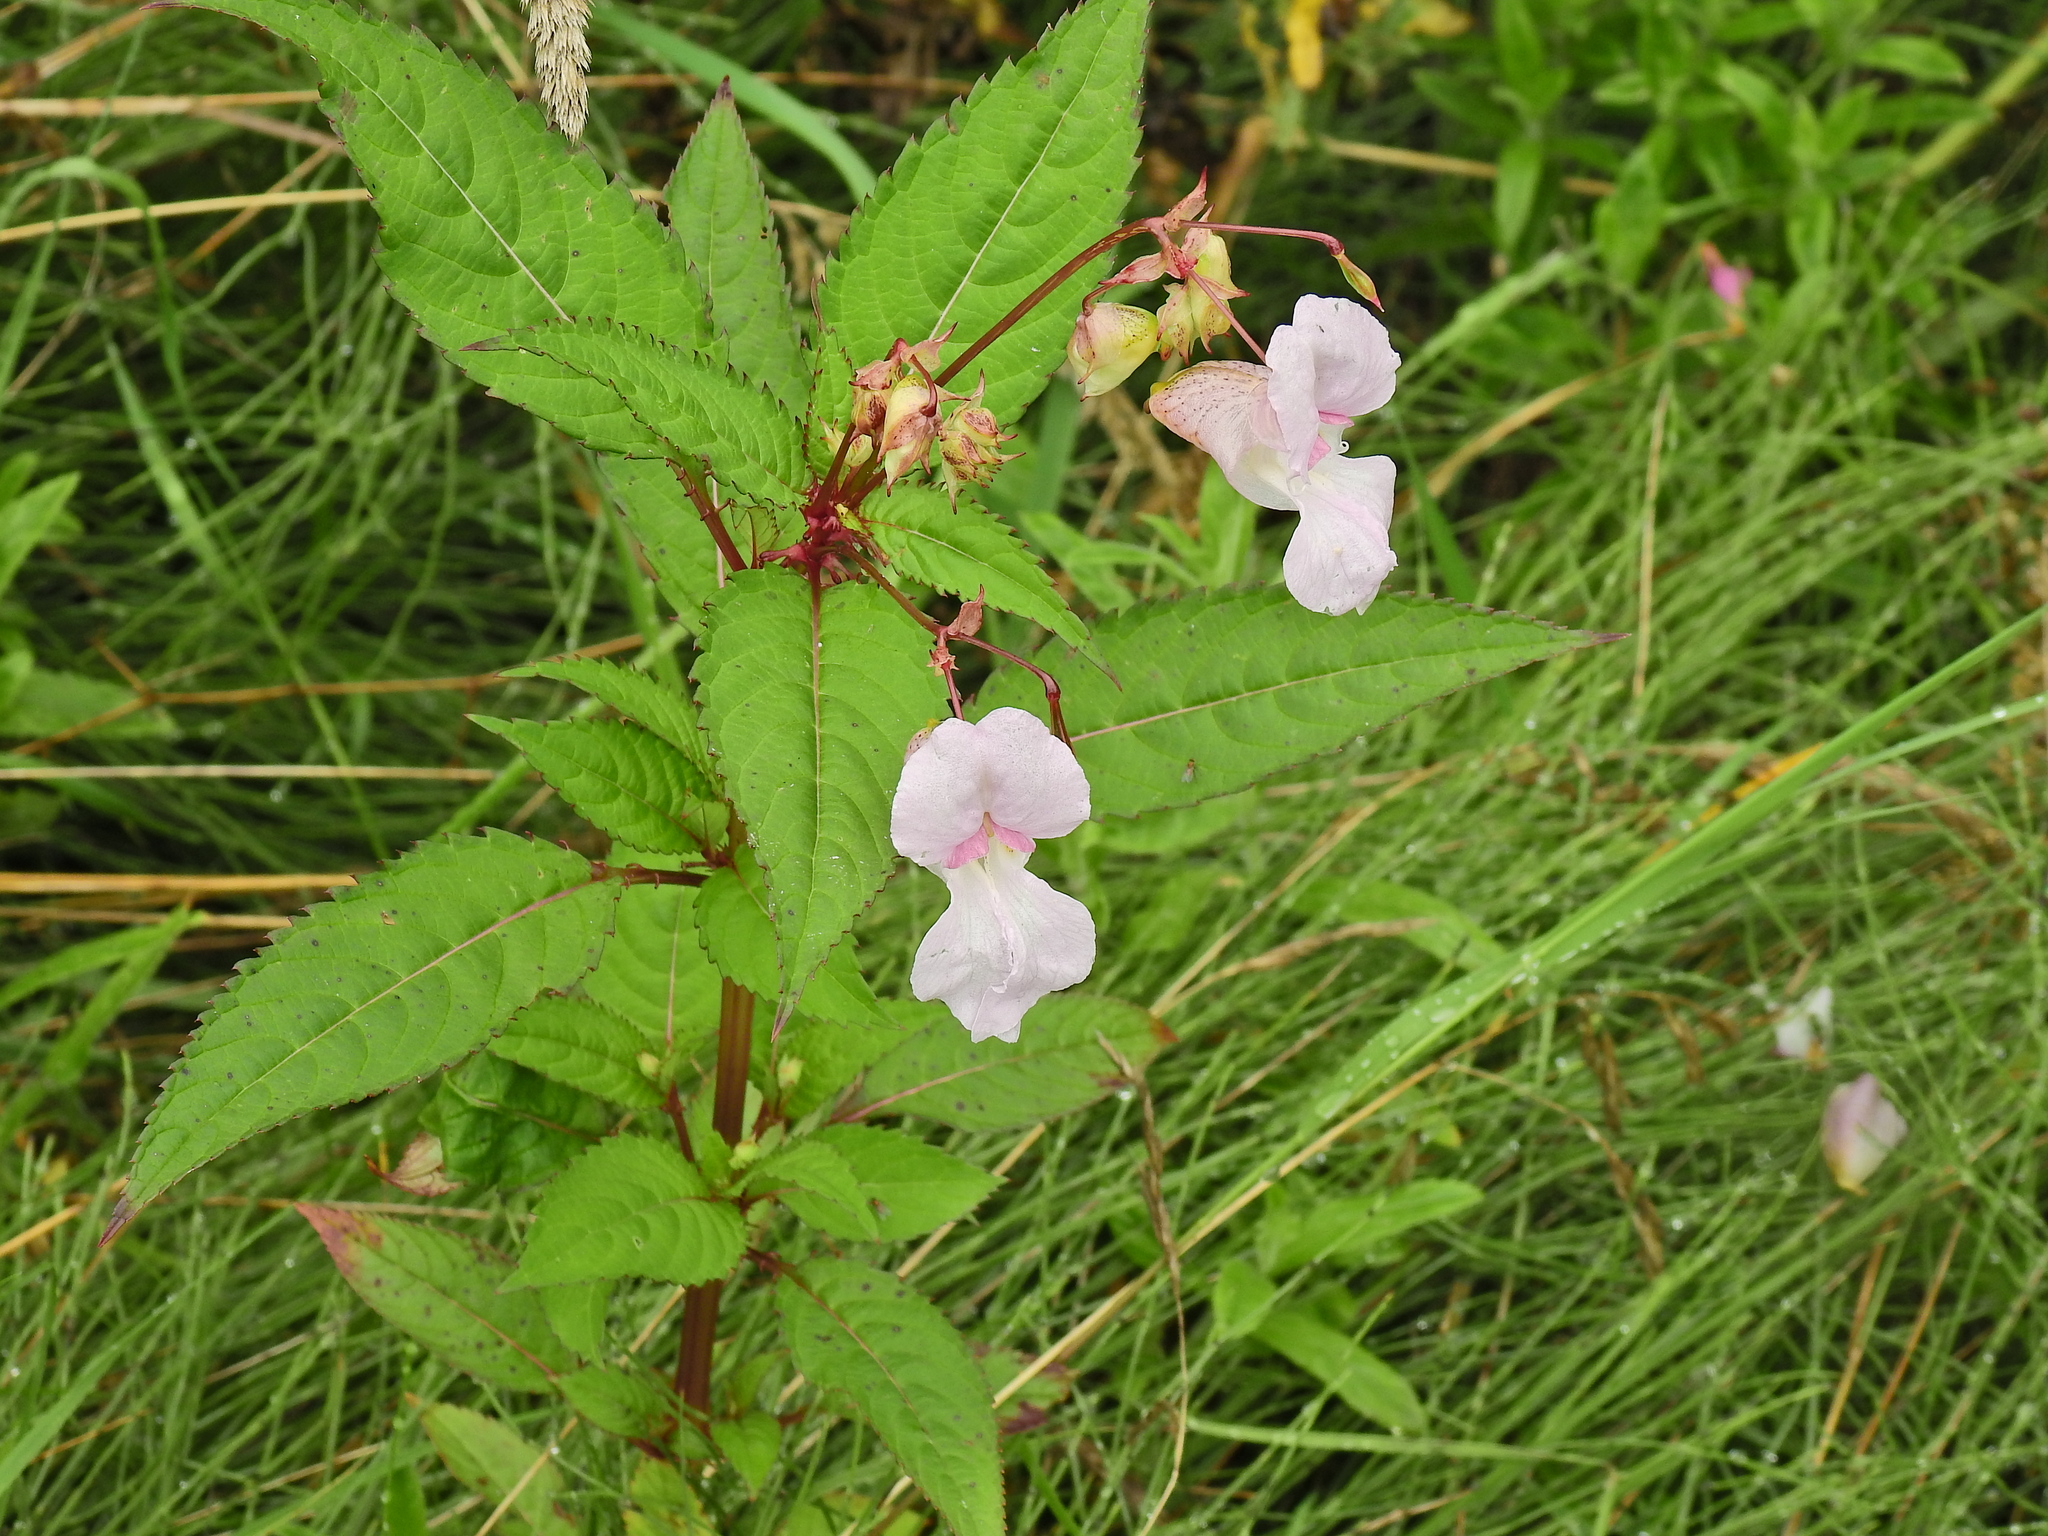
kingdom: Plantae
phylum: Tracheophyta
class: Magnoliopsida
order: Ericales
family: Balsaminaceae
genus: Impatiens
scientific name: Impatiens glandulifera
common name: Himalayan balsam
